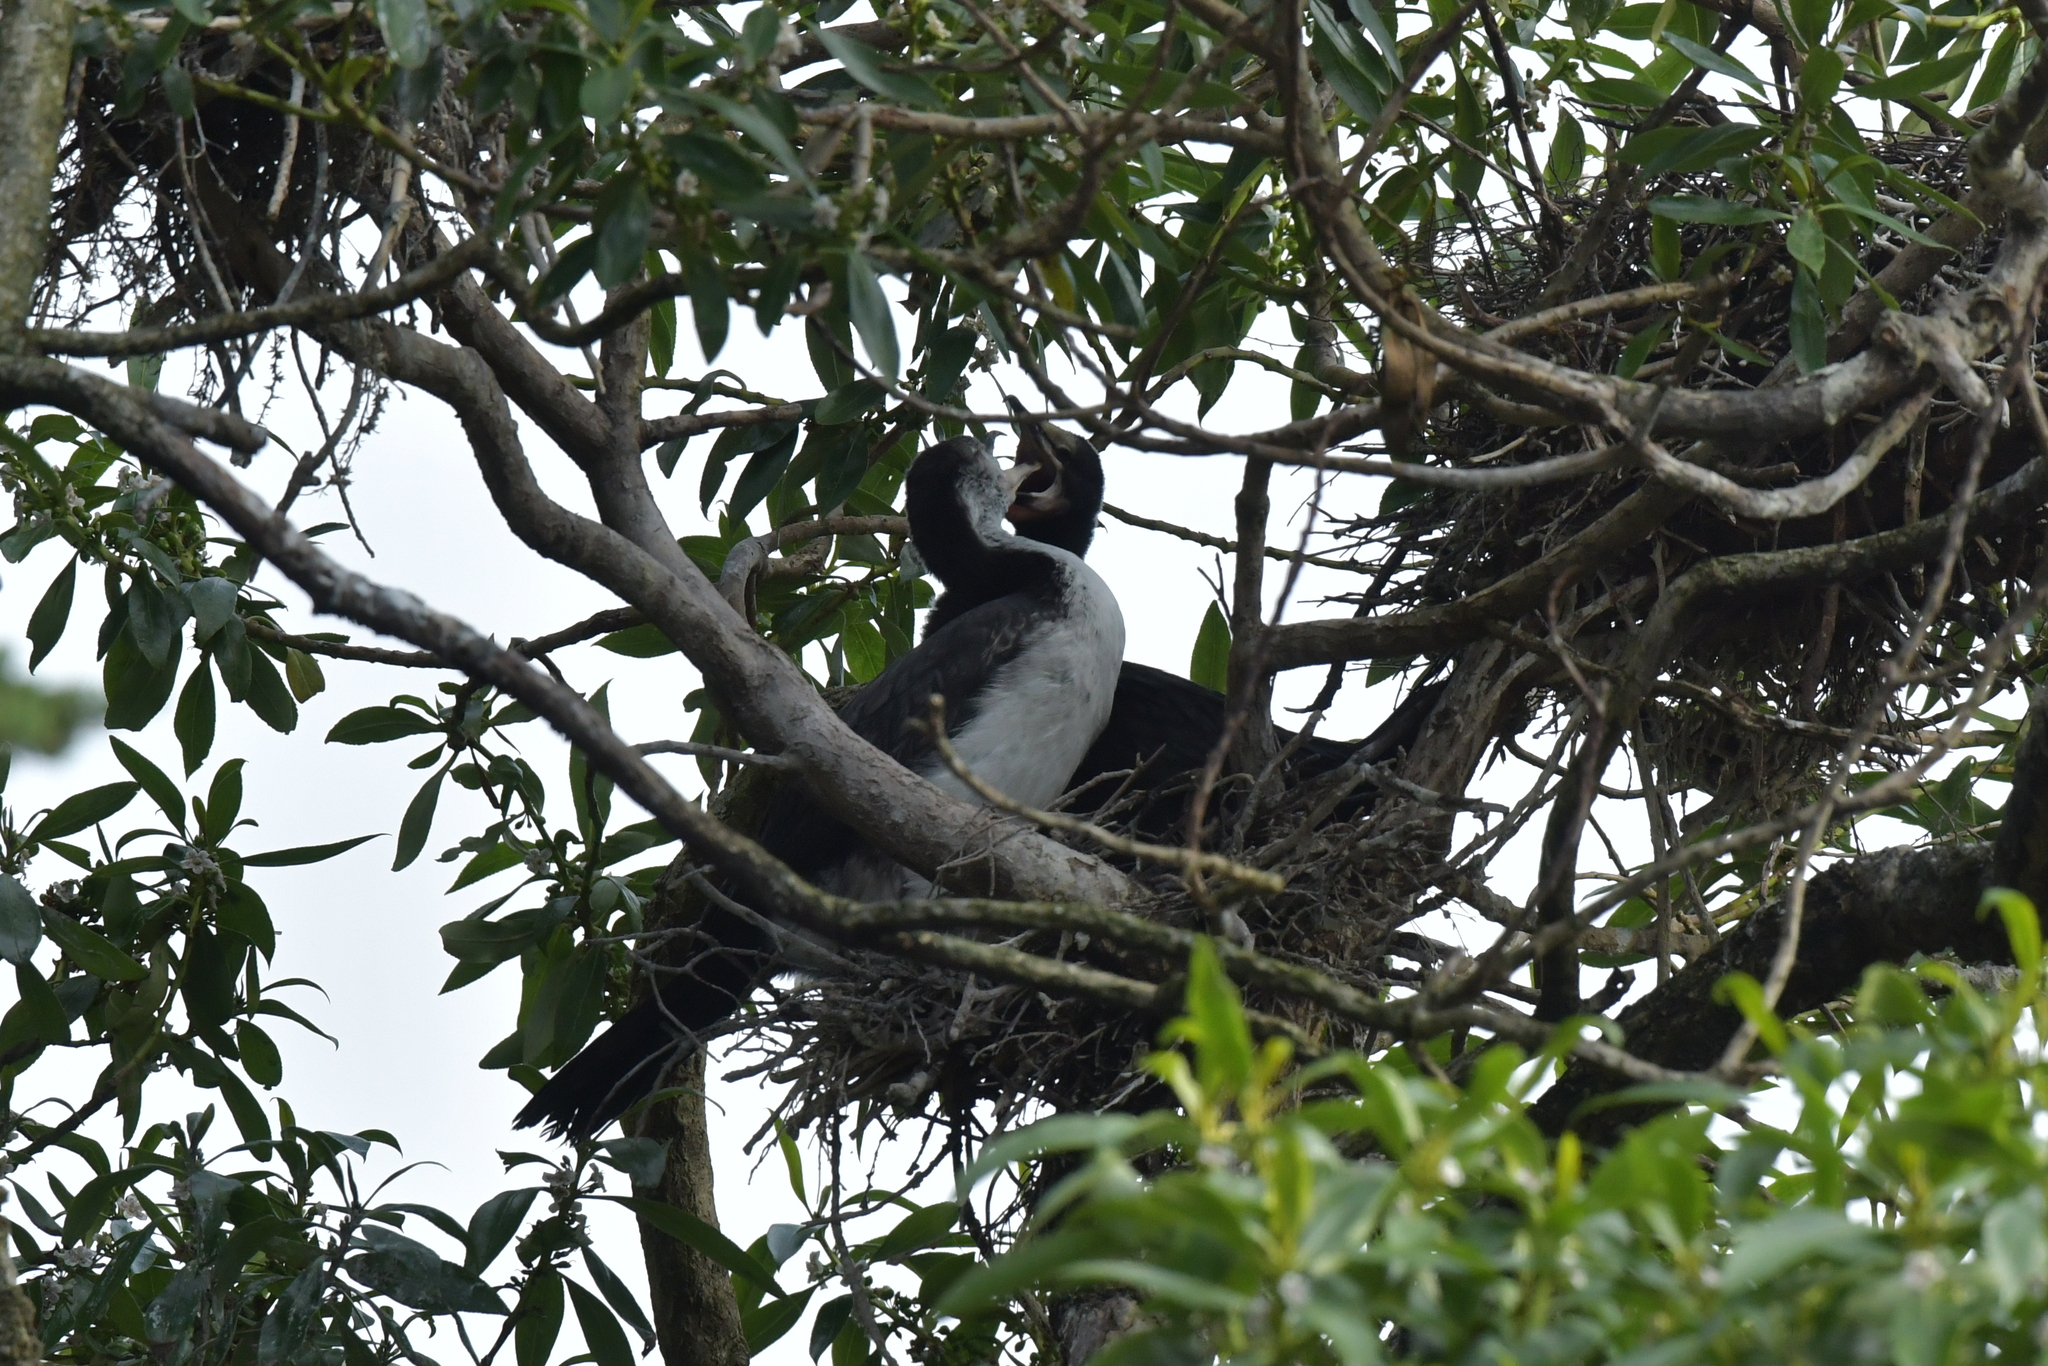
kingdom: Animalia
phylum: Chordata
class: Aves
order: Suliformes
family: Phalacrocoracidae
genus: Microcarbo
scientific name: Microcarbo melanoleucos
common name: Little pied cormorant
